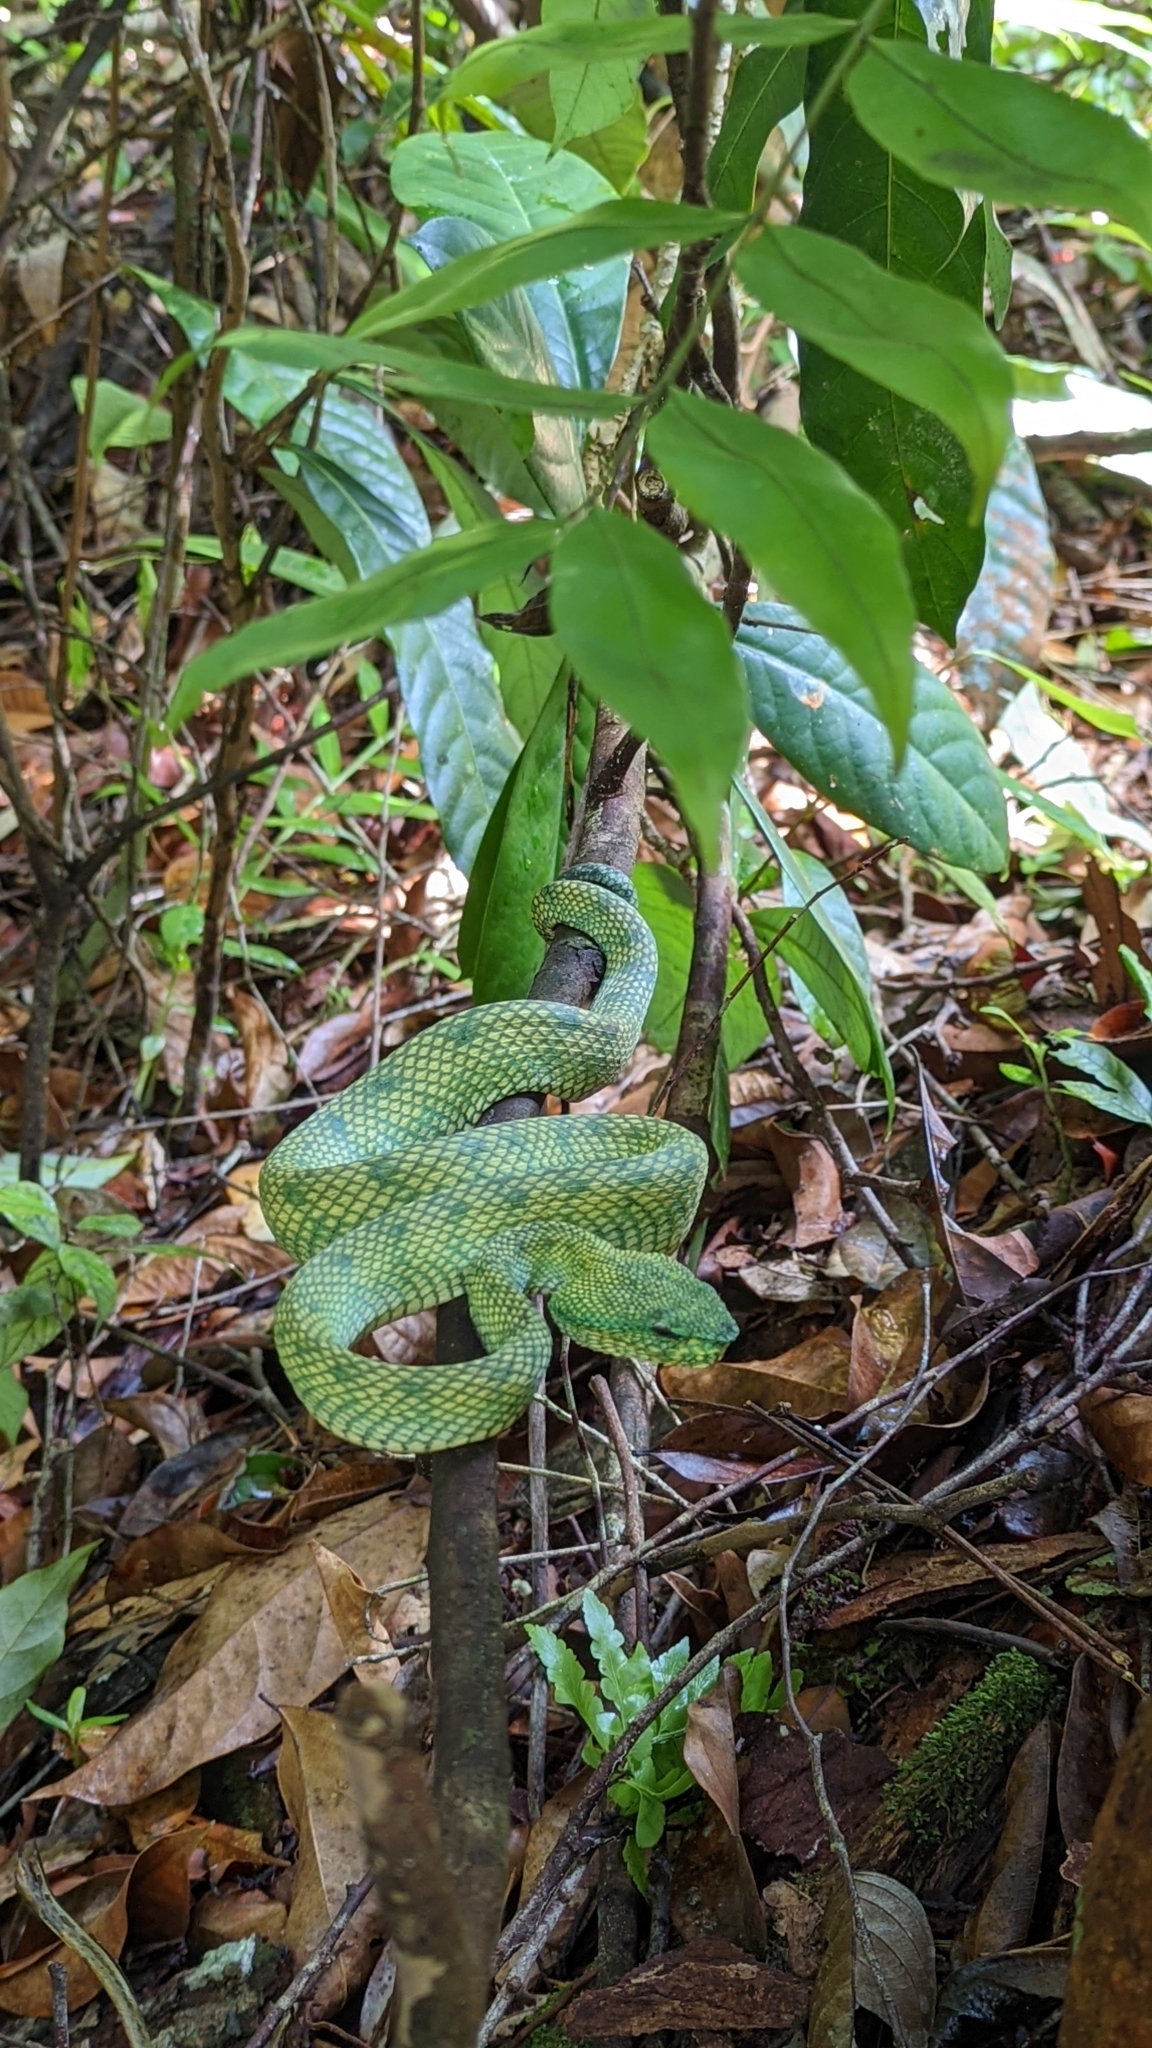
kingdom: Animalia
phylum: Chordata
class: Squamata
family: Viperidae
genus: Tropidolaemus
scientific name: Tropidolaemus subannulatus
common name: North philippine temple pitviper
